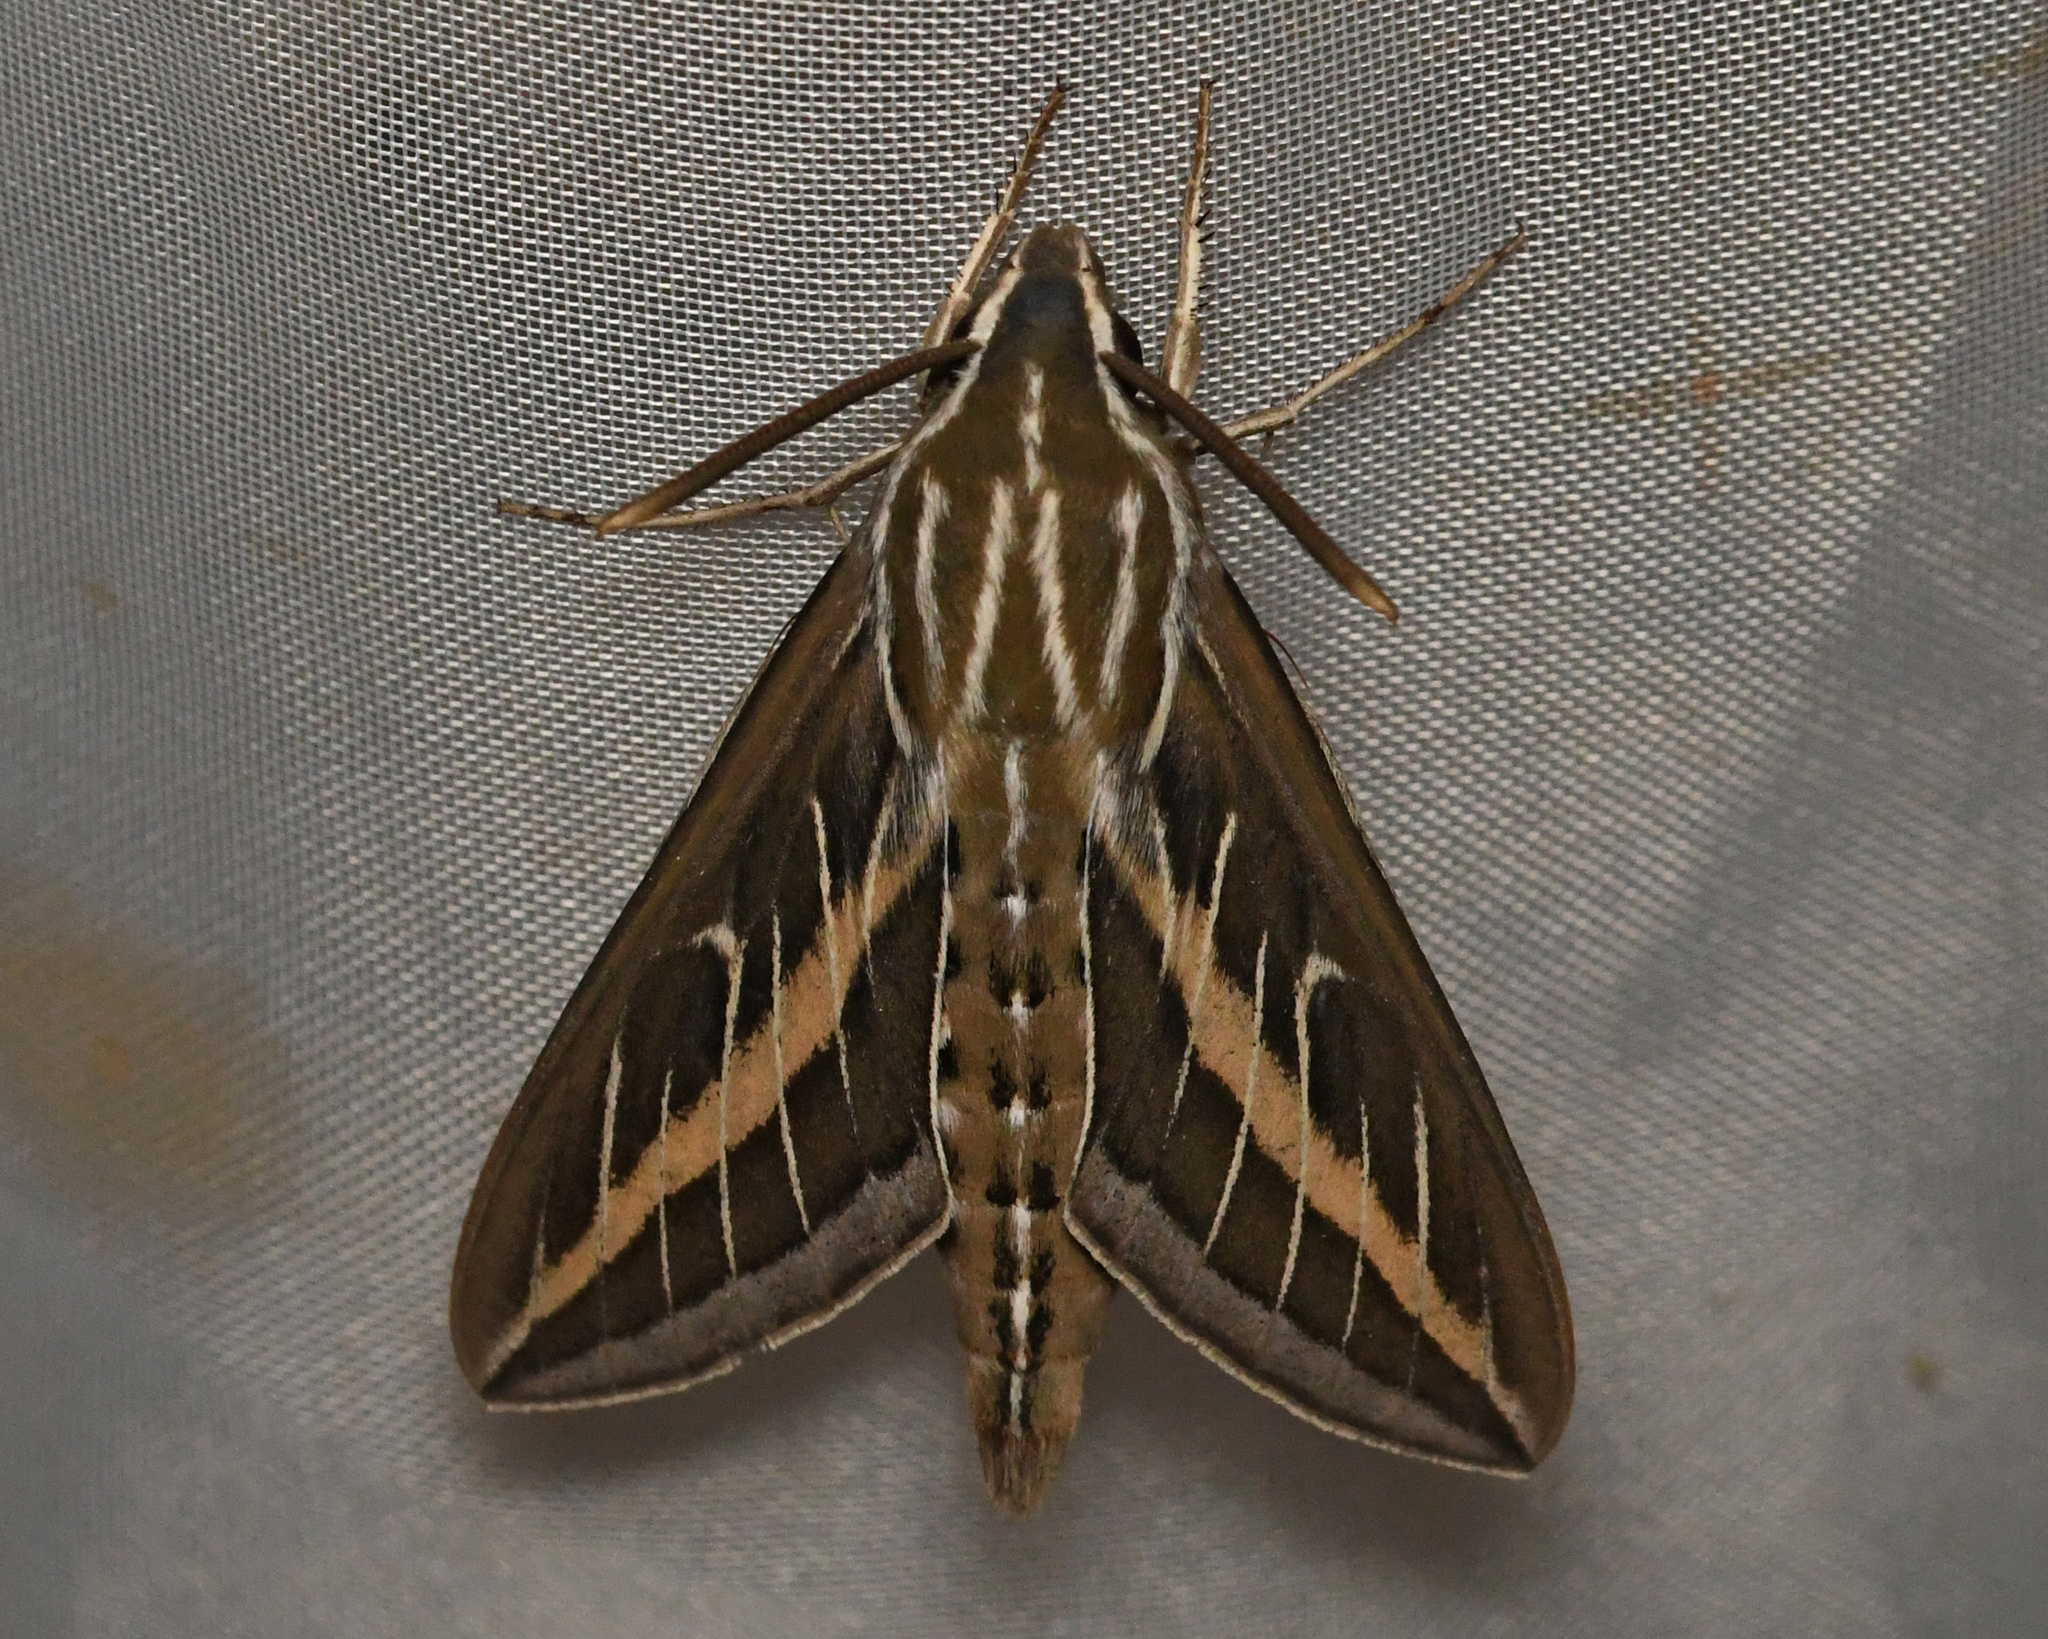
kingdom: Animalia
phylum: Arthropoda
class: Insecta
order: Lepidoptera
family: Sphingidae
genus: Hyles
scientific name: Hyles lineata
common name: White-lined sphinx
